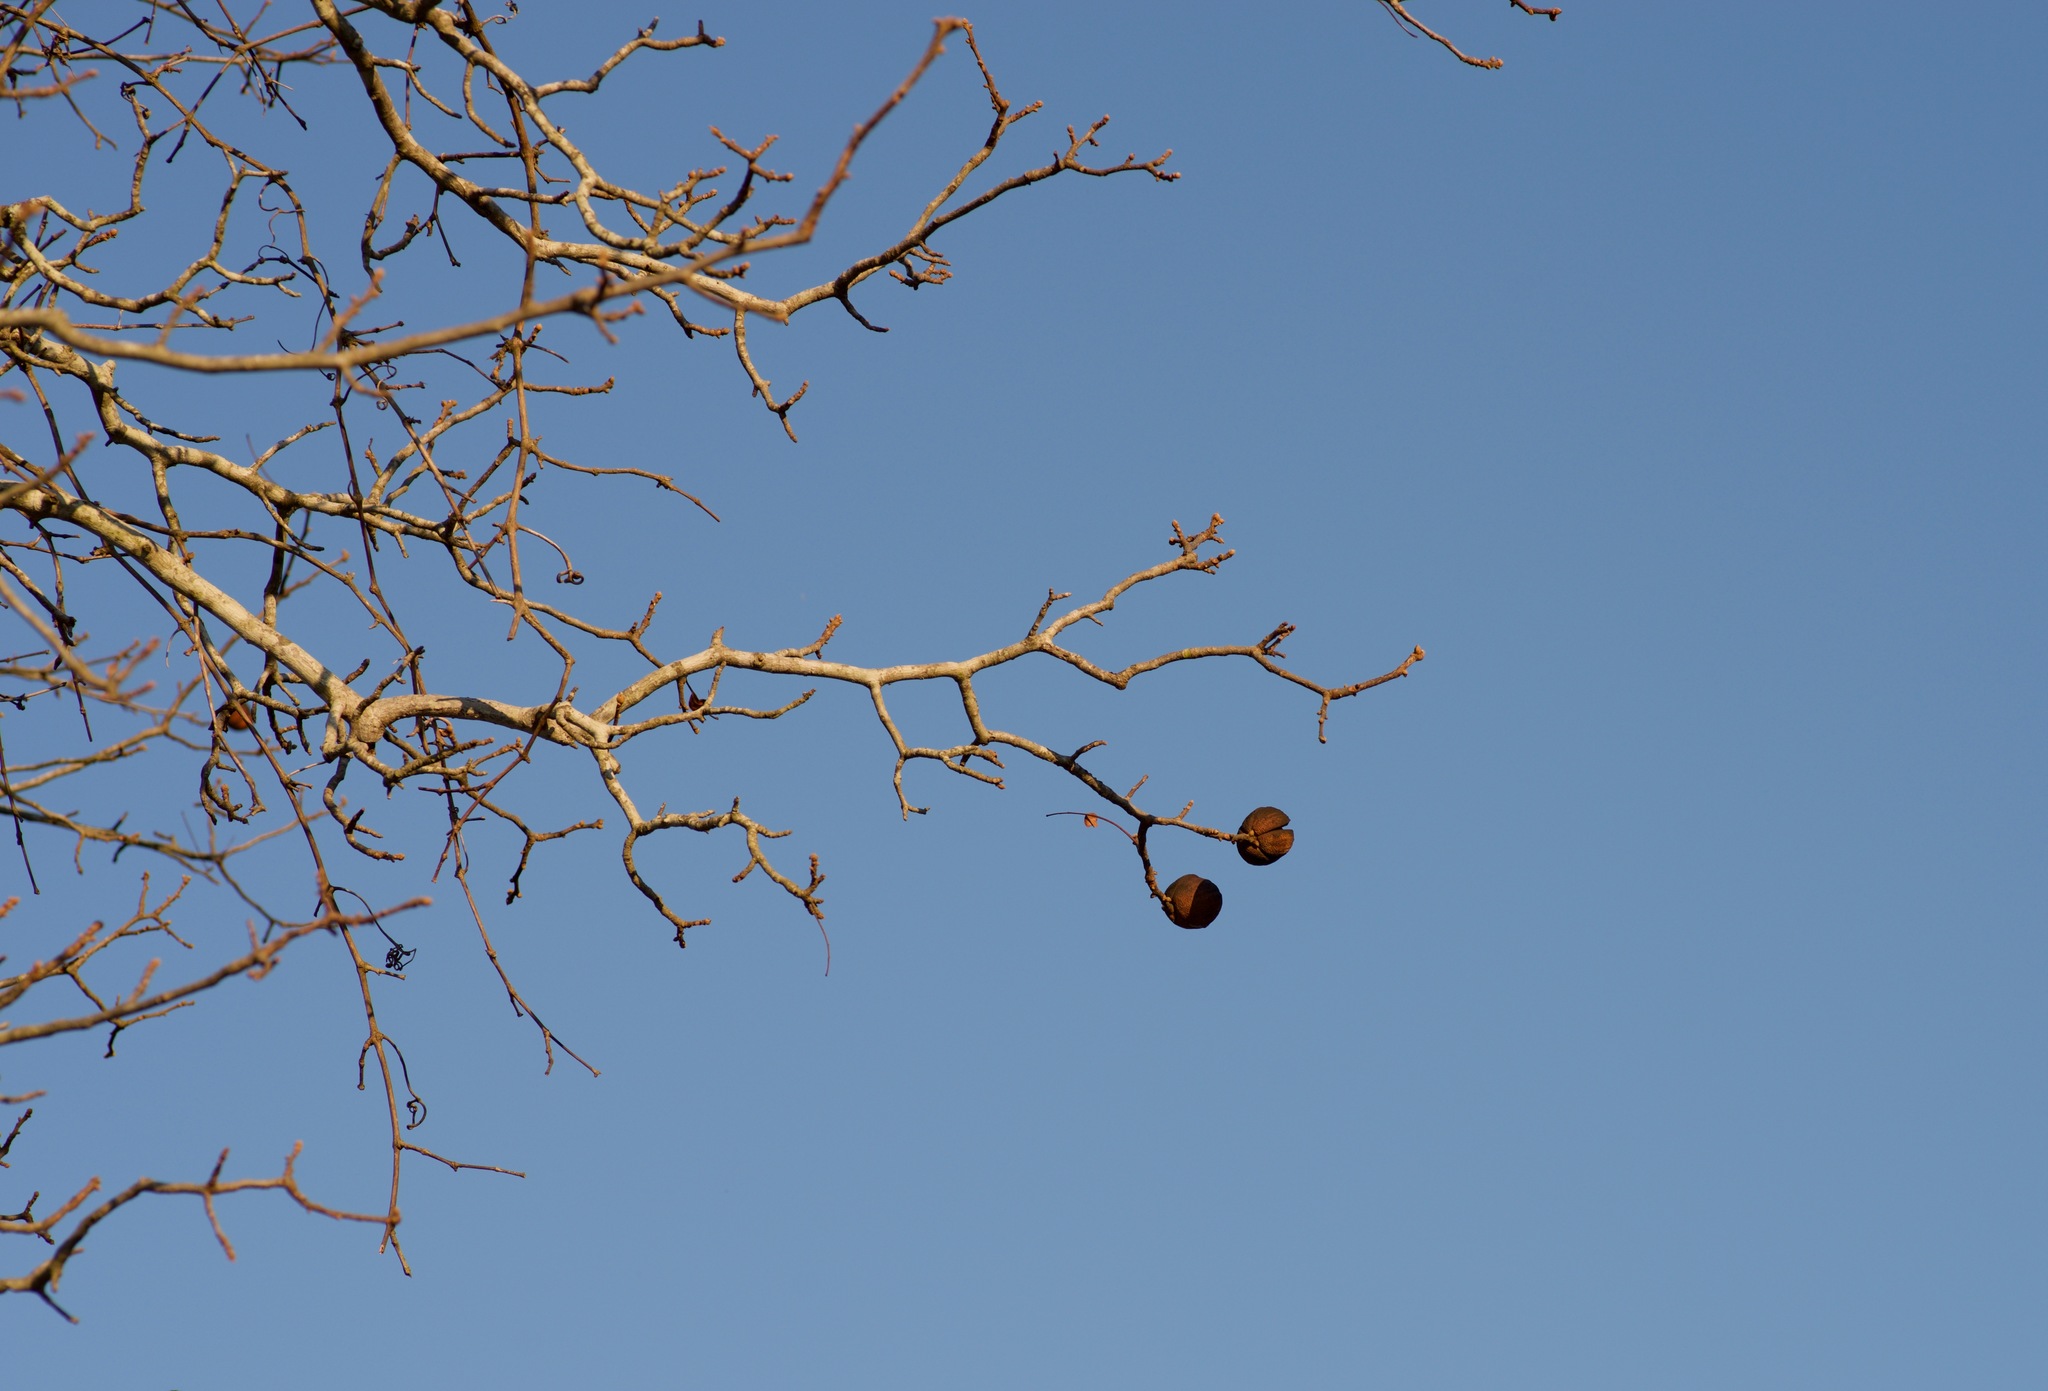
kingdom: Plantae
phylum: Tracheophyta
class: Magnoliopsida
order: Fagales
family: Juglandaceae
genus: Carya
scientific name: Carya texana
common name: Black hickory
